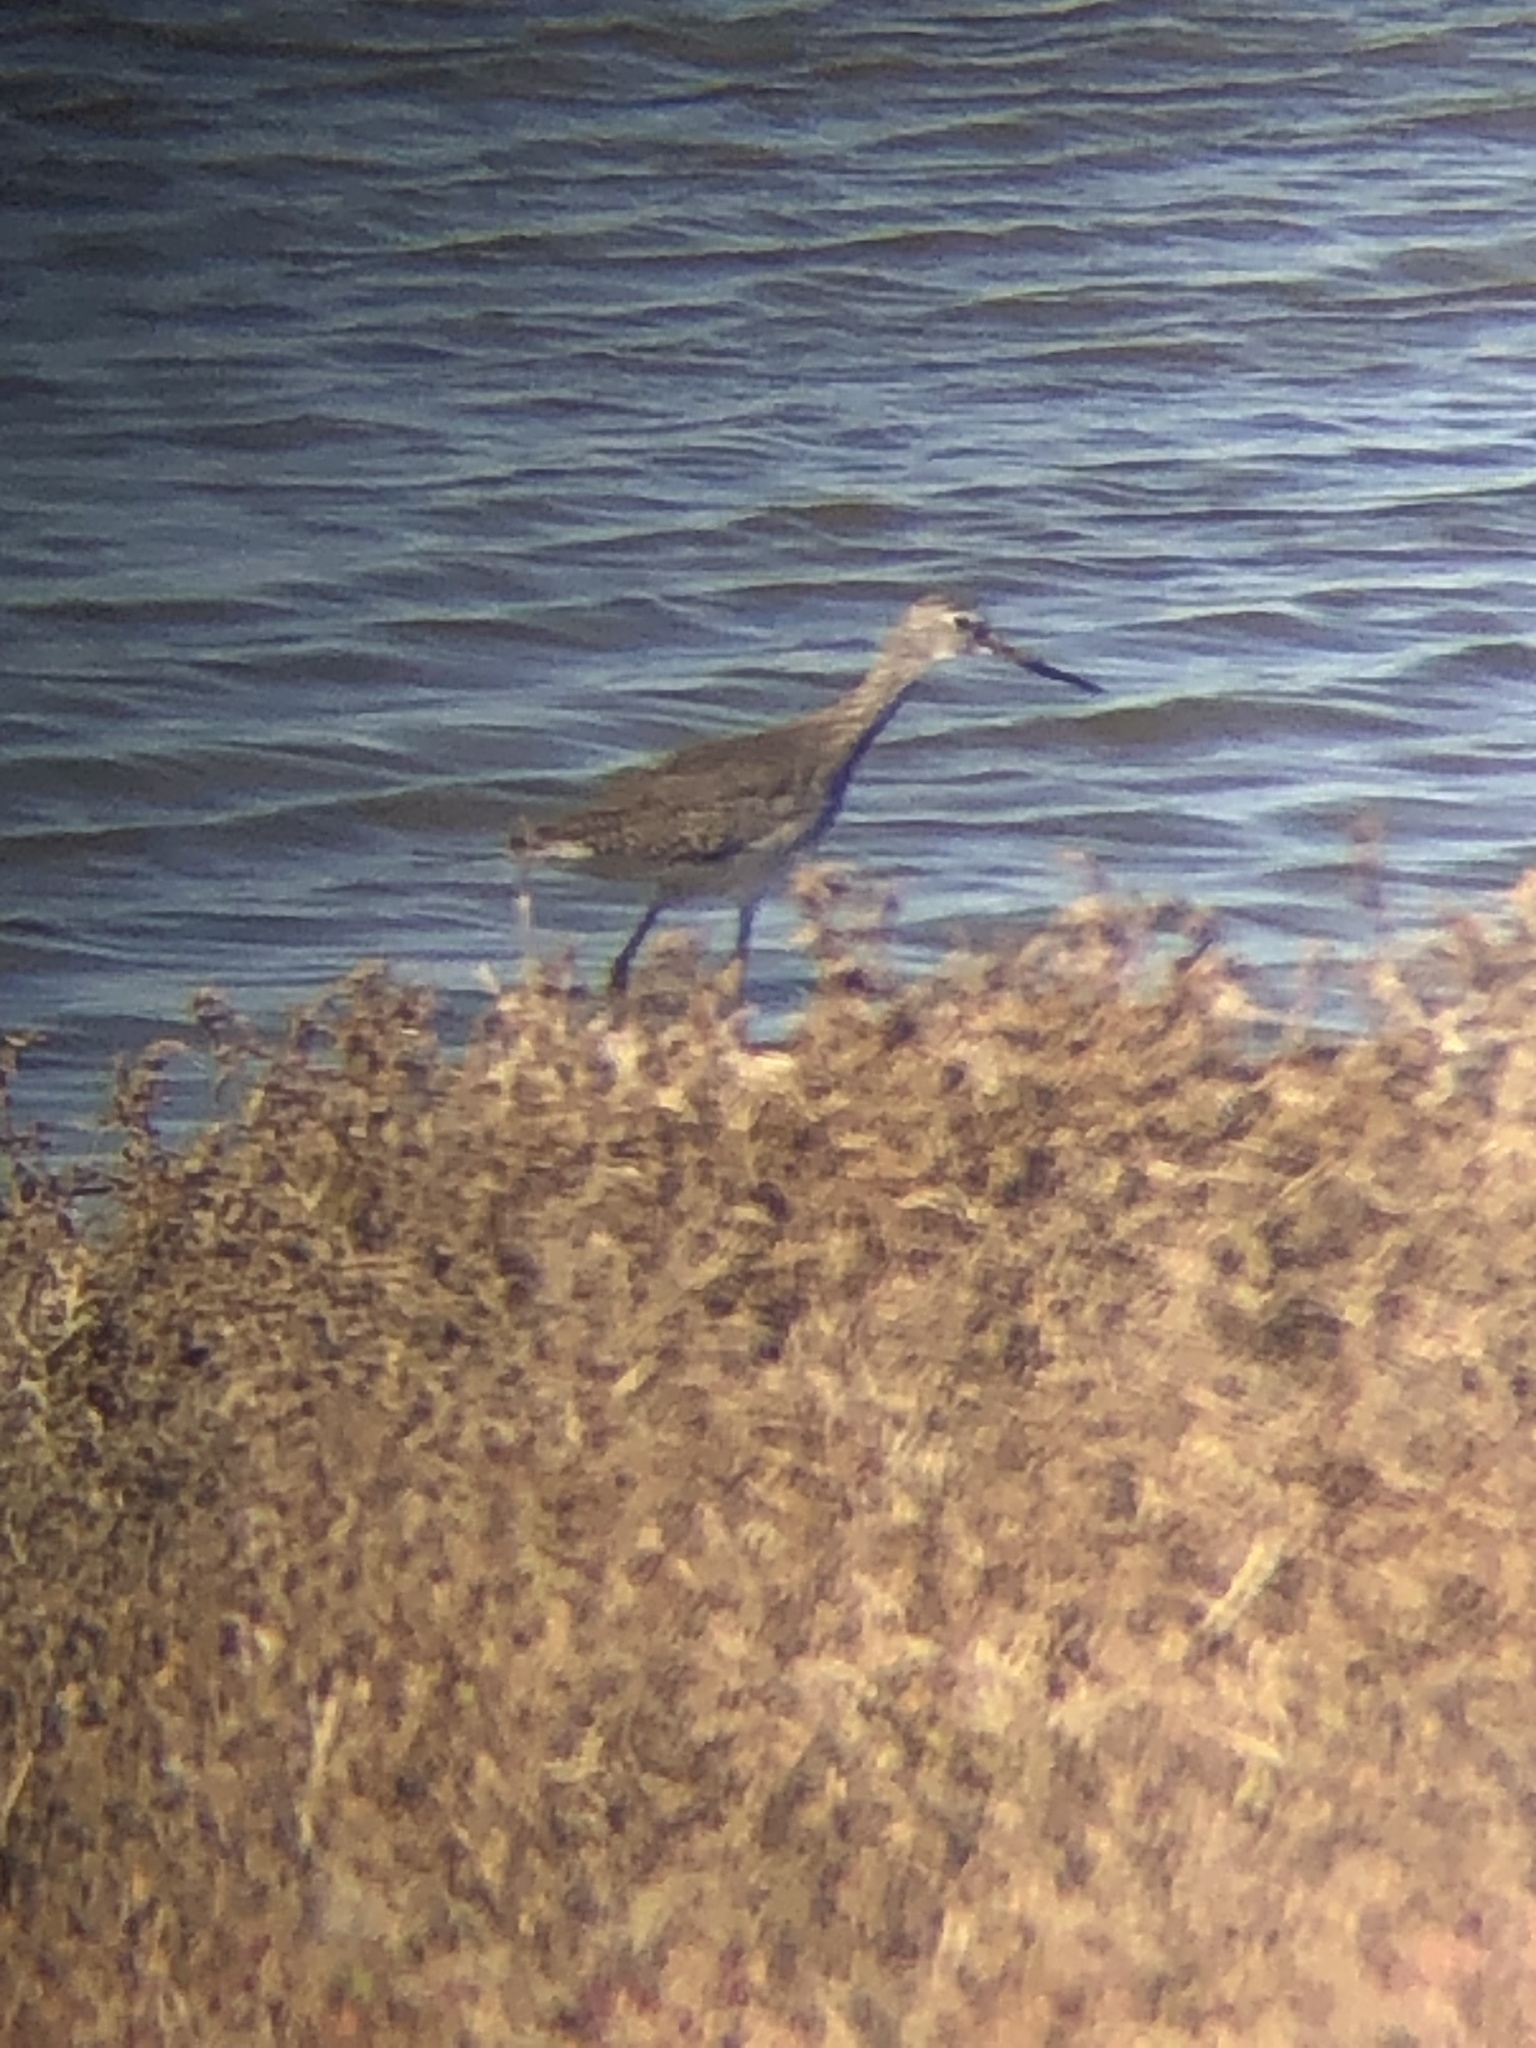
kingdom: Animalia
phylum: Chordata
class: Aves
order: Charadriiformes
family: Scolopacidae
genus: Tringa
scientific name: Tringa melanoleuca
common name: Greater yellowlegs
